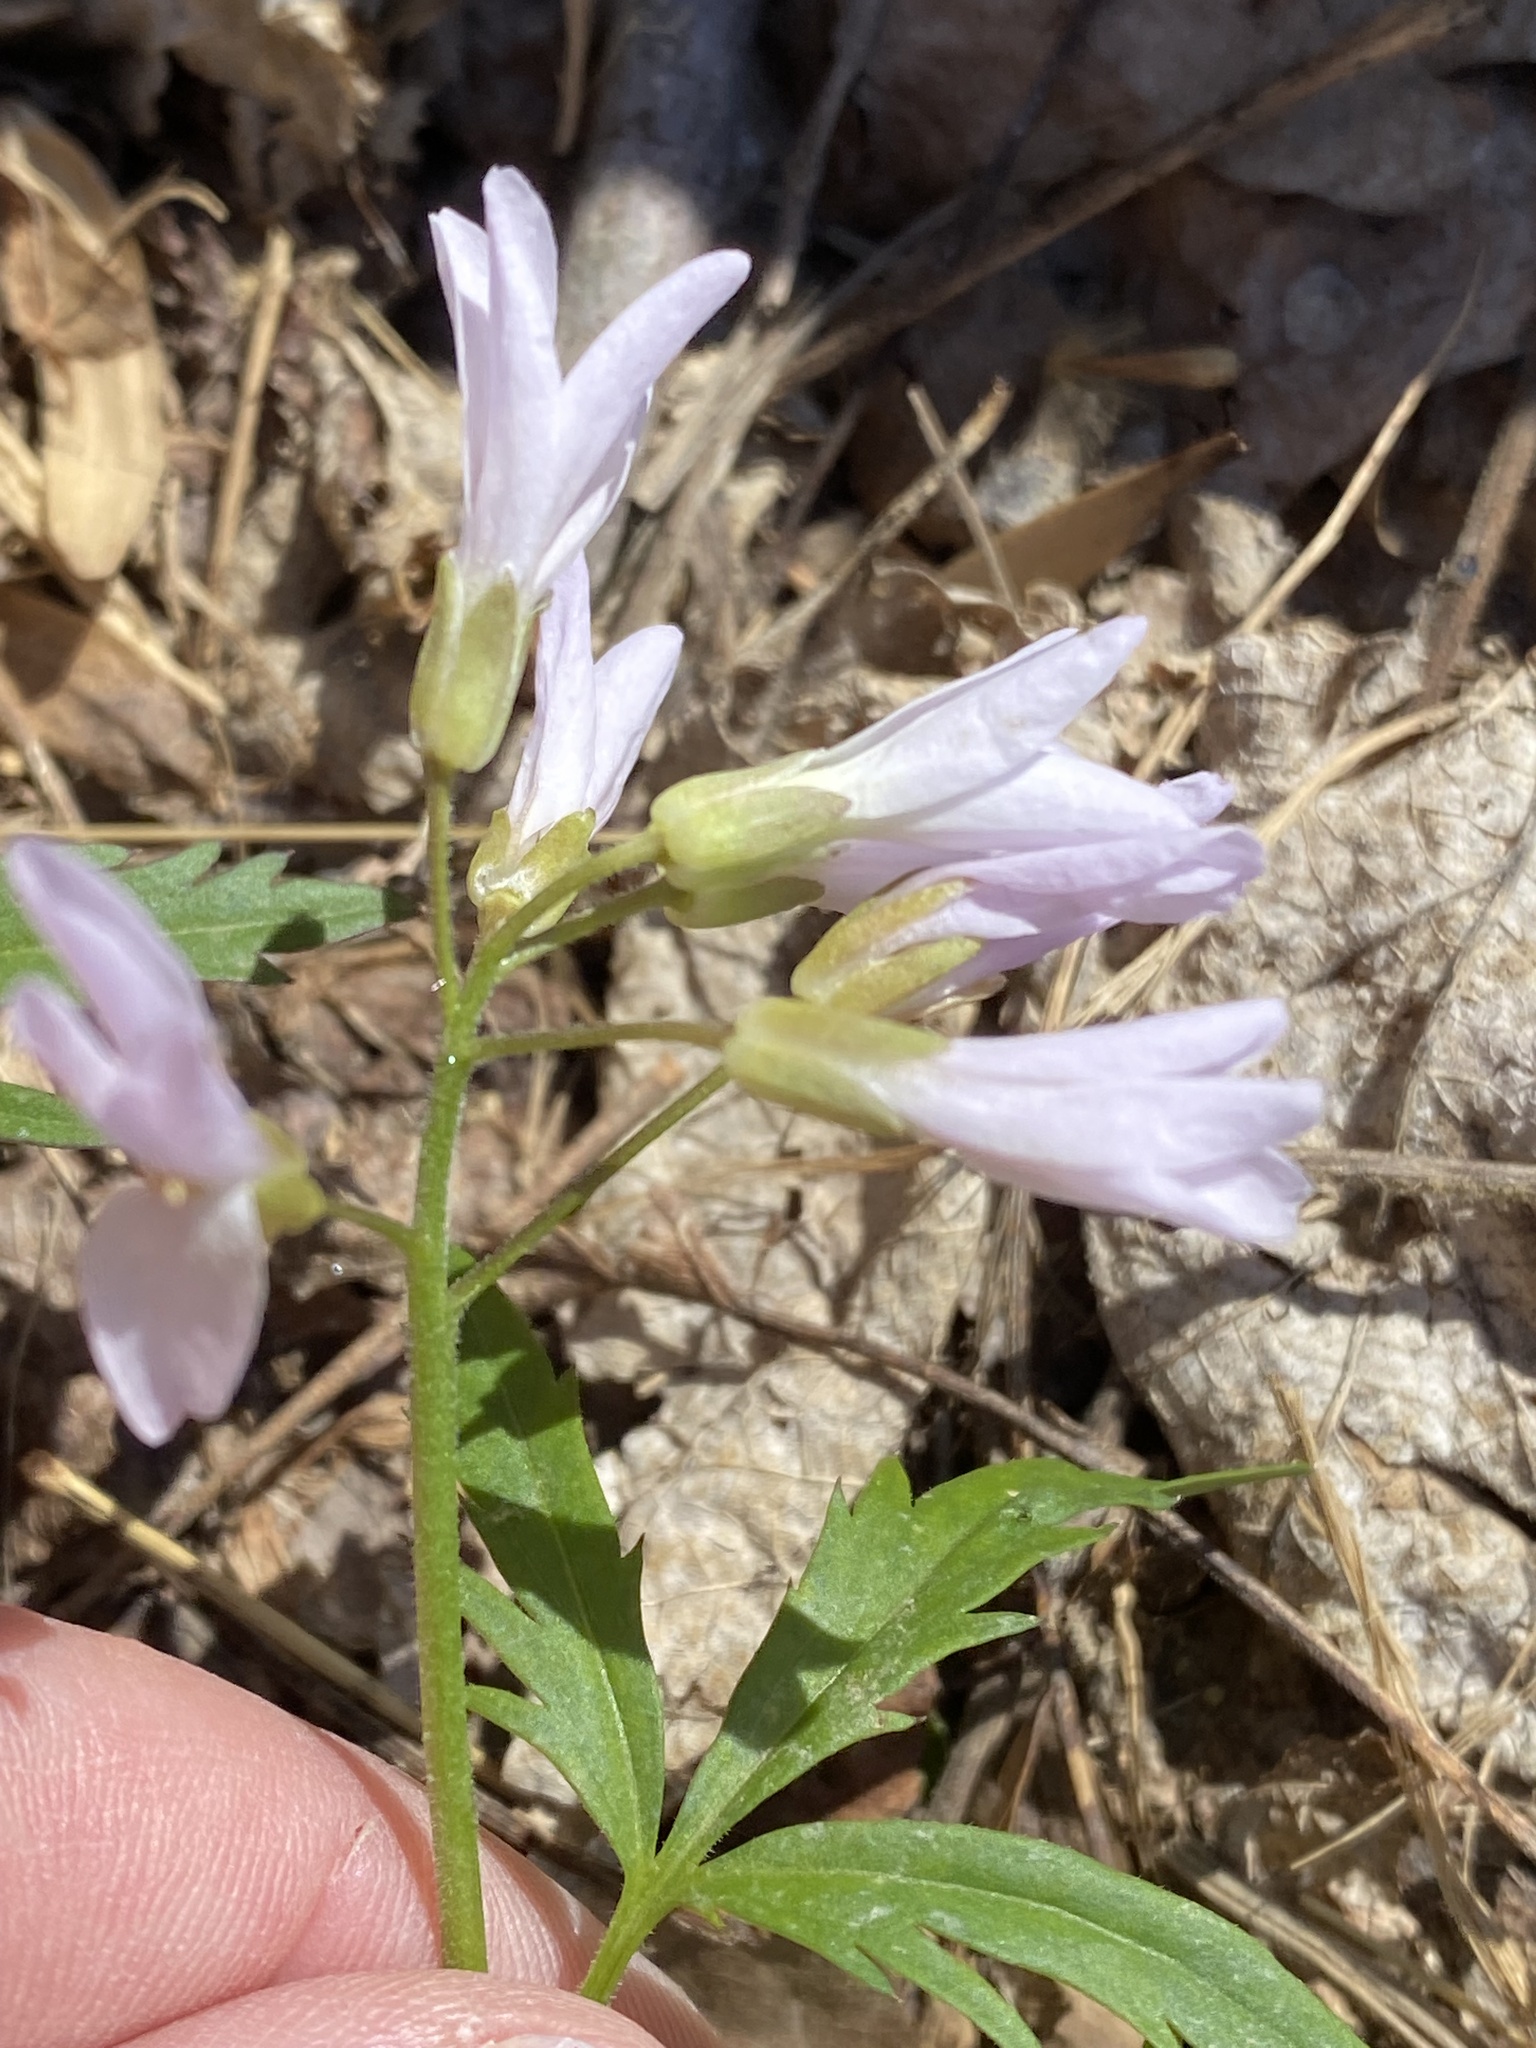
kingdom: Plantae
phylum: Tracheophyta
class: Magnoliopsida
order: Brassicales
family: Brassicaceae
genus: Cardamine
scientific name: Cardamine concatenata
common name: Cut-leaf toothcup
